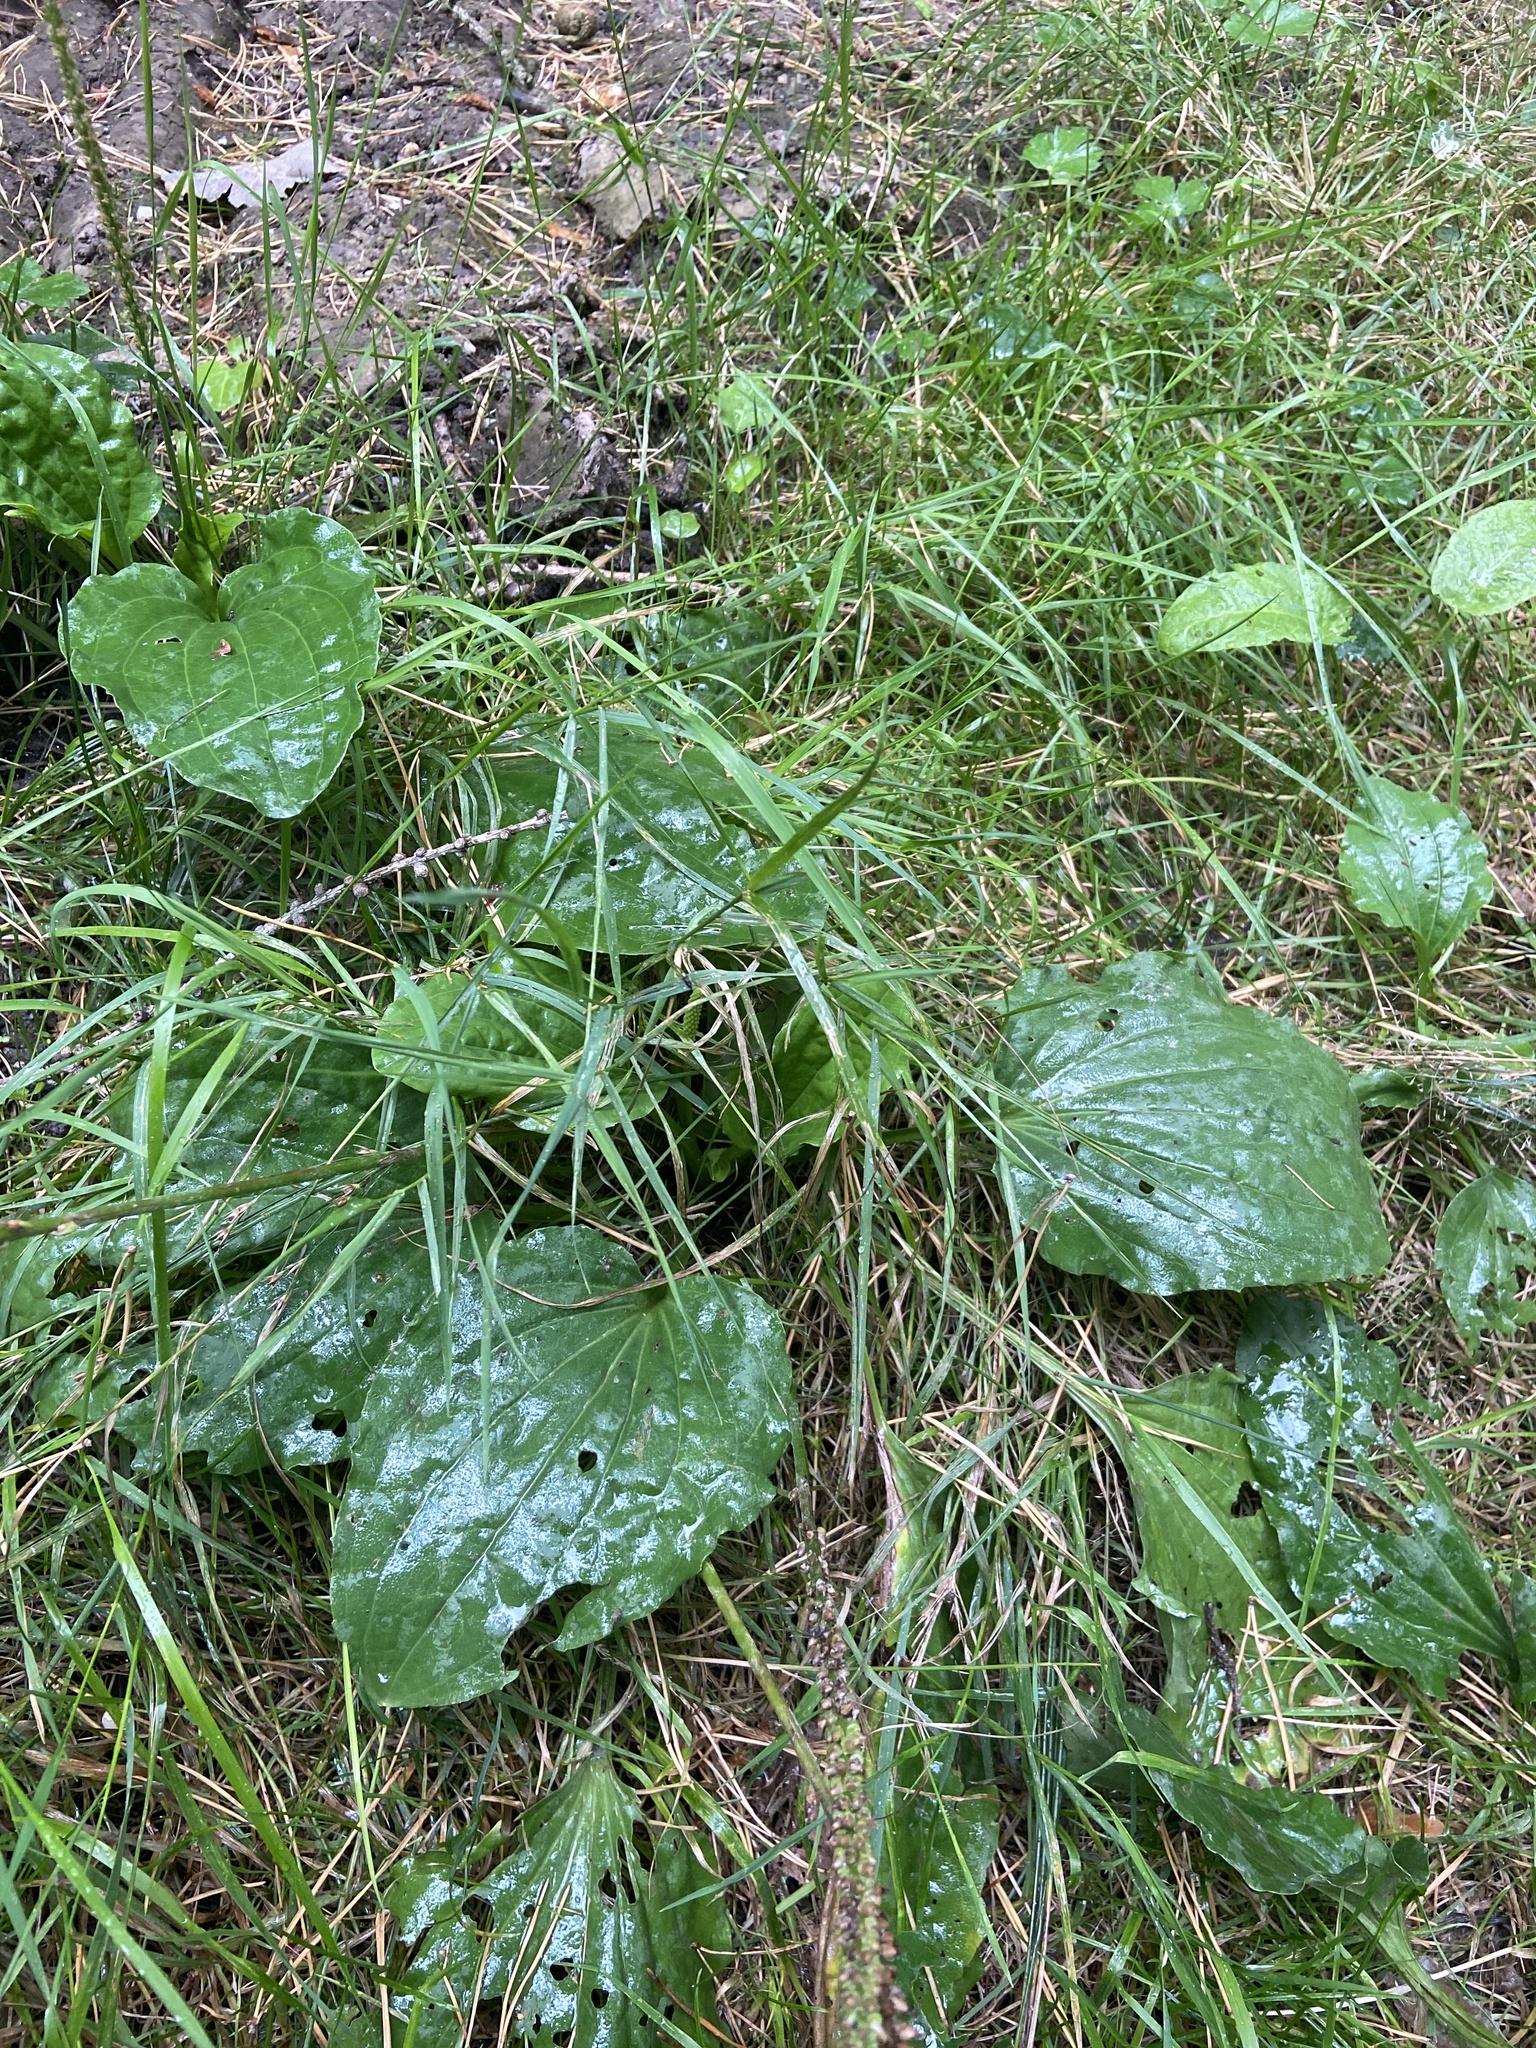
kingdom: Plantae
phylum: Tracheophyta
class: Magnoliopsida
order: Lamiales
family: Plantaginaceae
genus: Plantago
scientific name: Plantago major
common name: Common plantain
